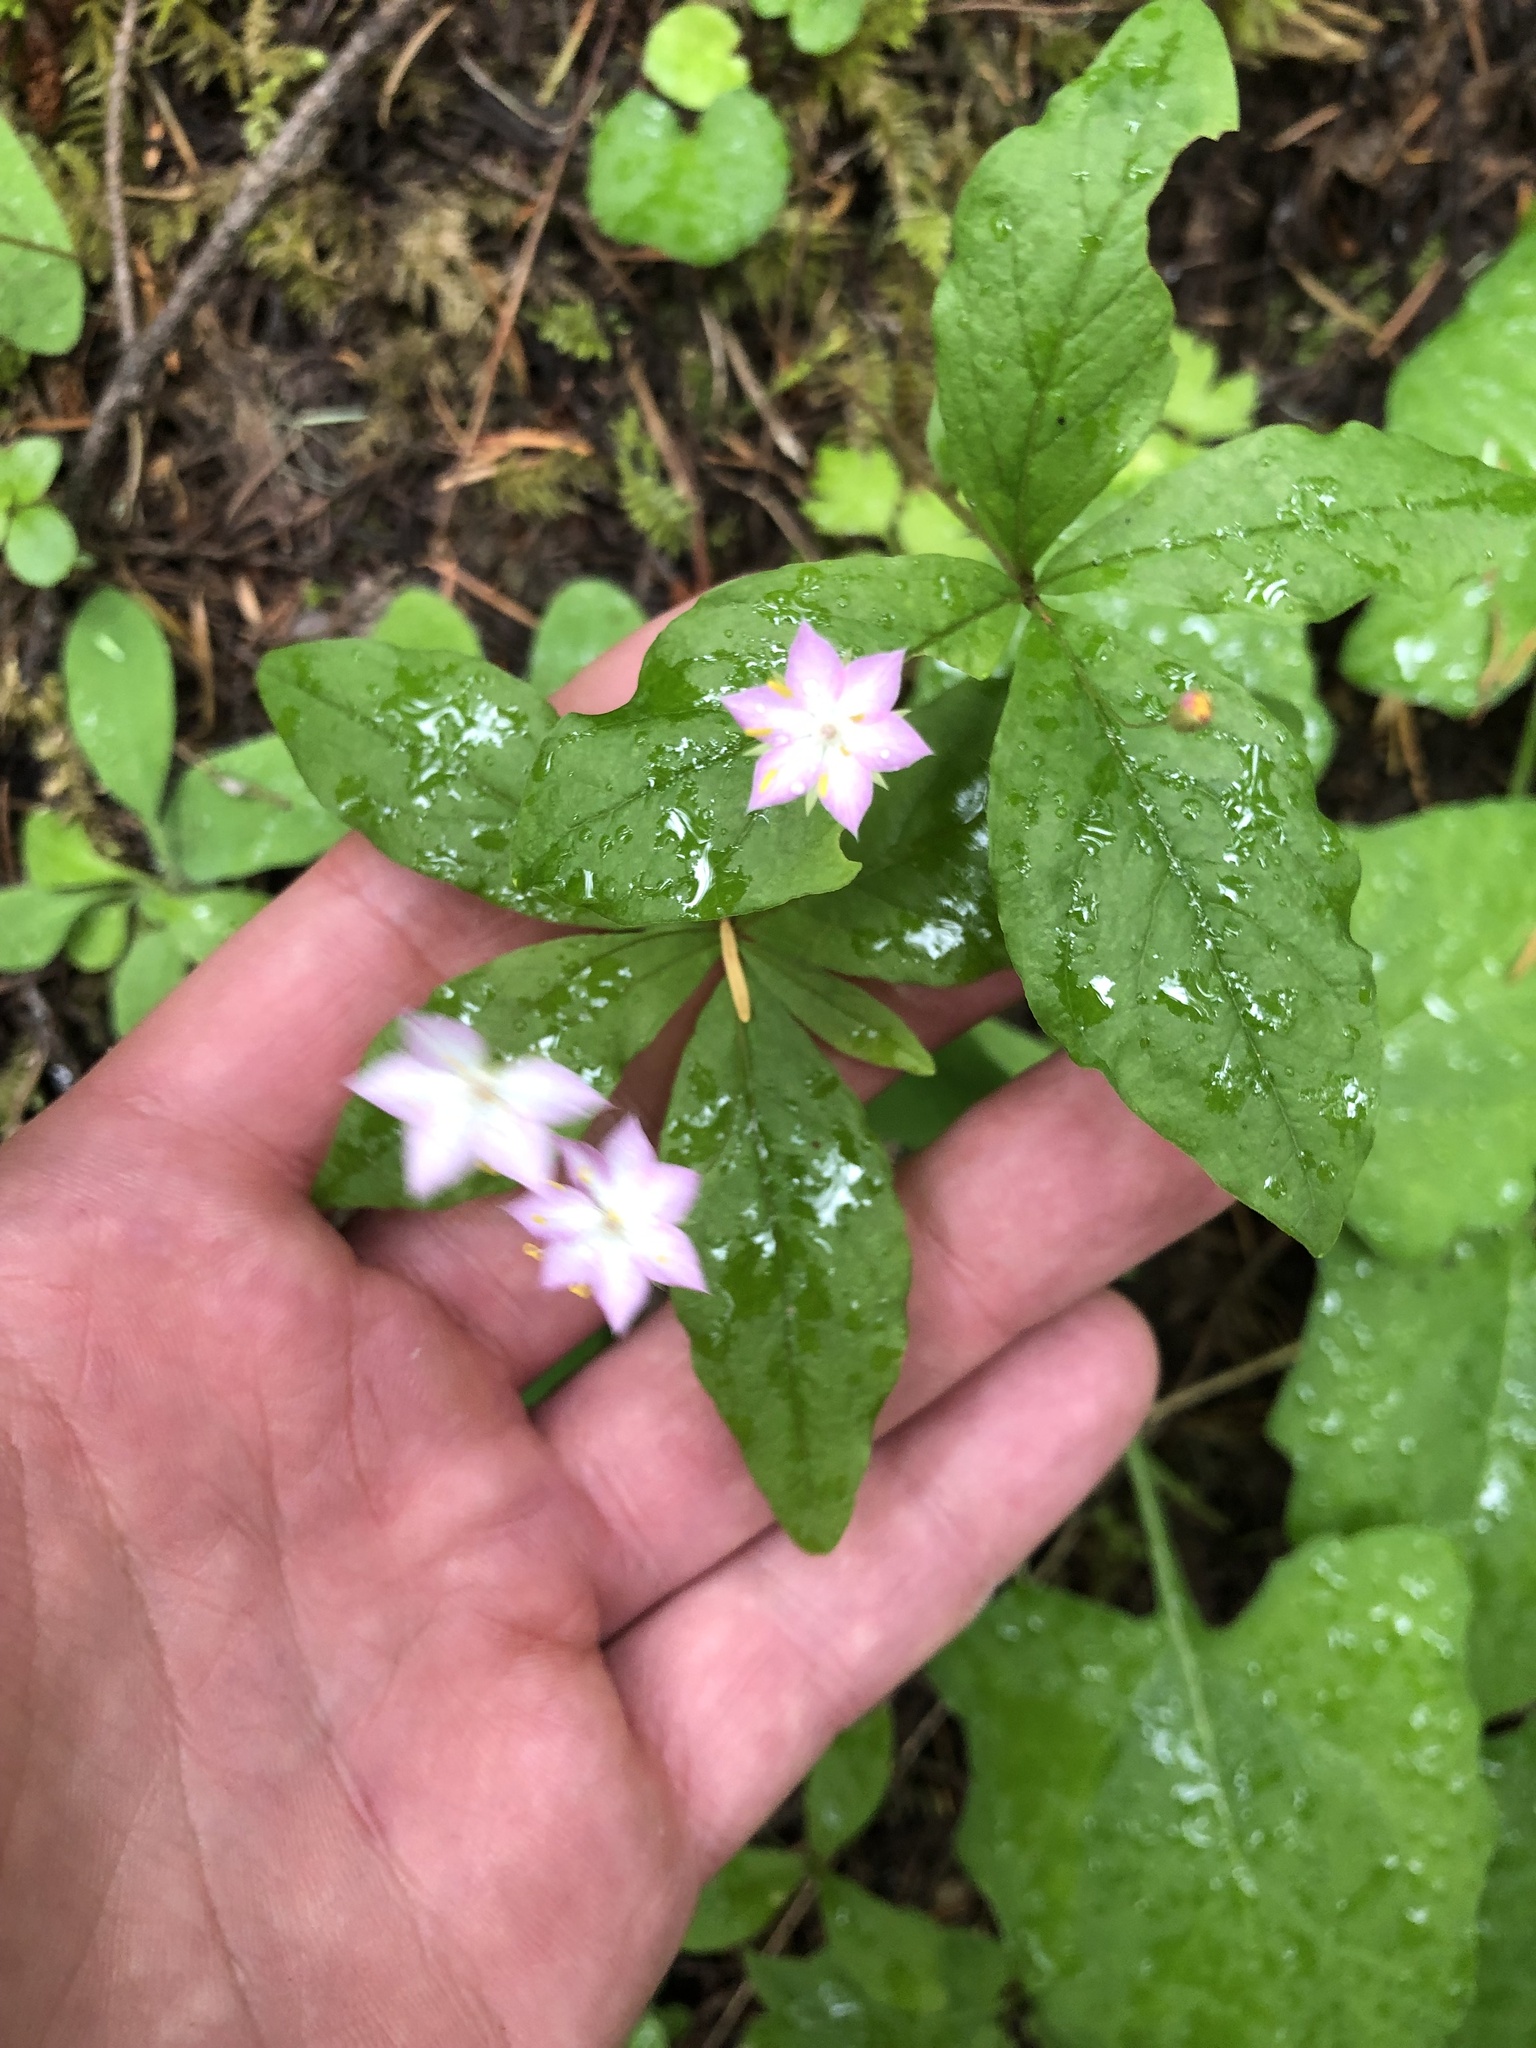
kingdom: Plantae
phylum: Tracheophyta
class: Magnoliopsida
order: Ericales
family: Primulaceae
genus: Lysimachia
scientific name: Lysimachia latifolia
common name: Pacific starflower
